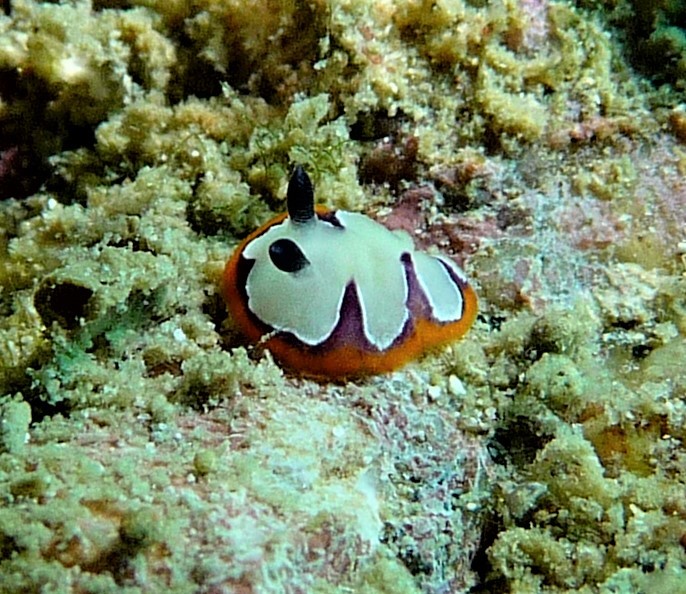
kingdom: Animalia
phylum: Mollusca
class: Gastropoda
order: Nudibranchia
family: Chromodorididae
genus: Goniobranchus
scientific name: Goniobranchus fidelis
